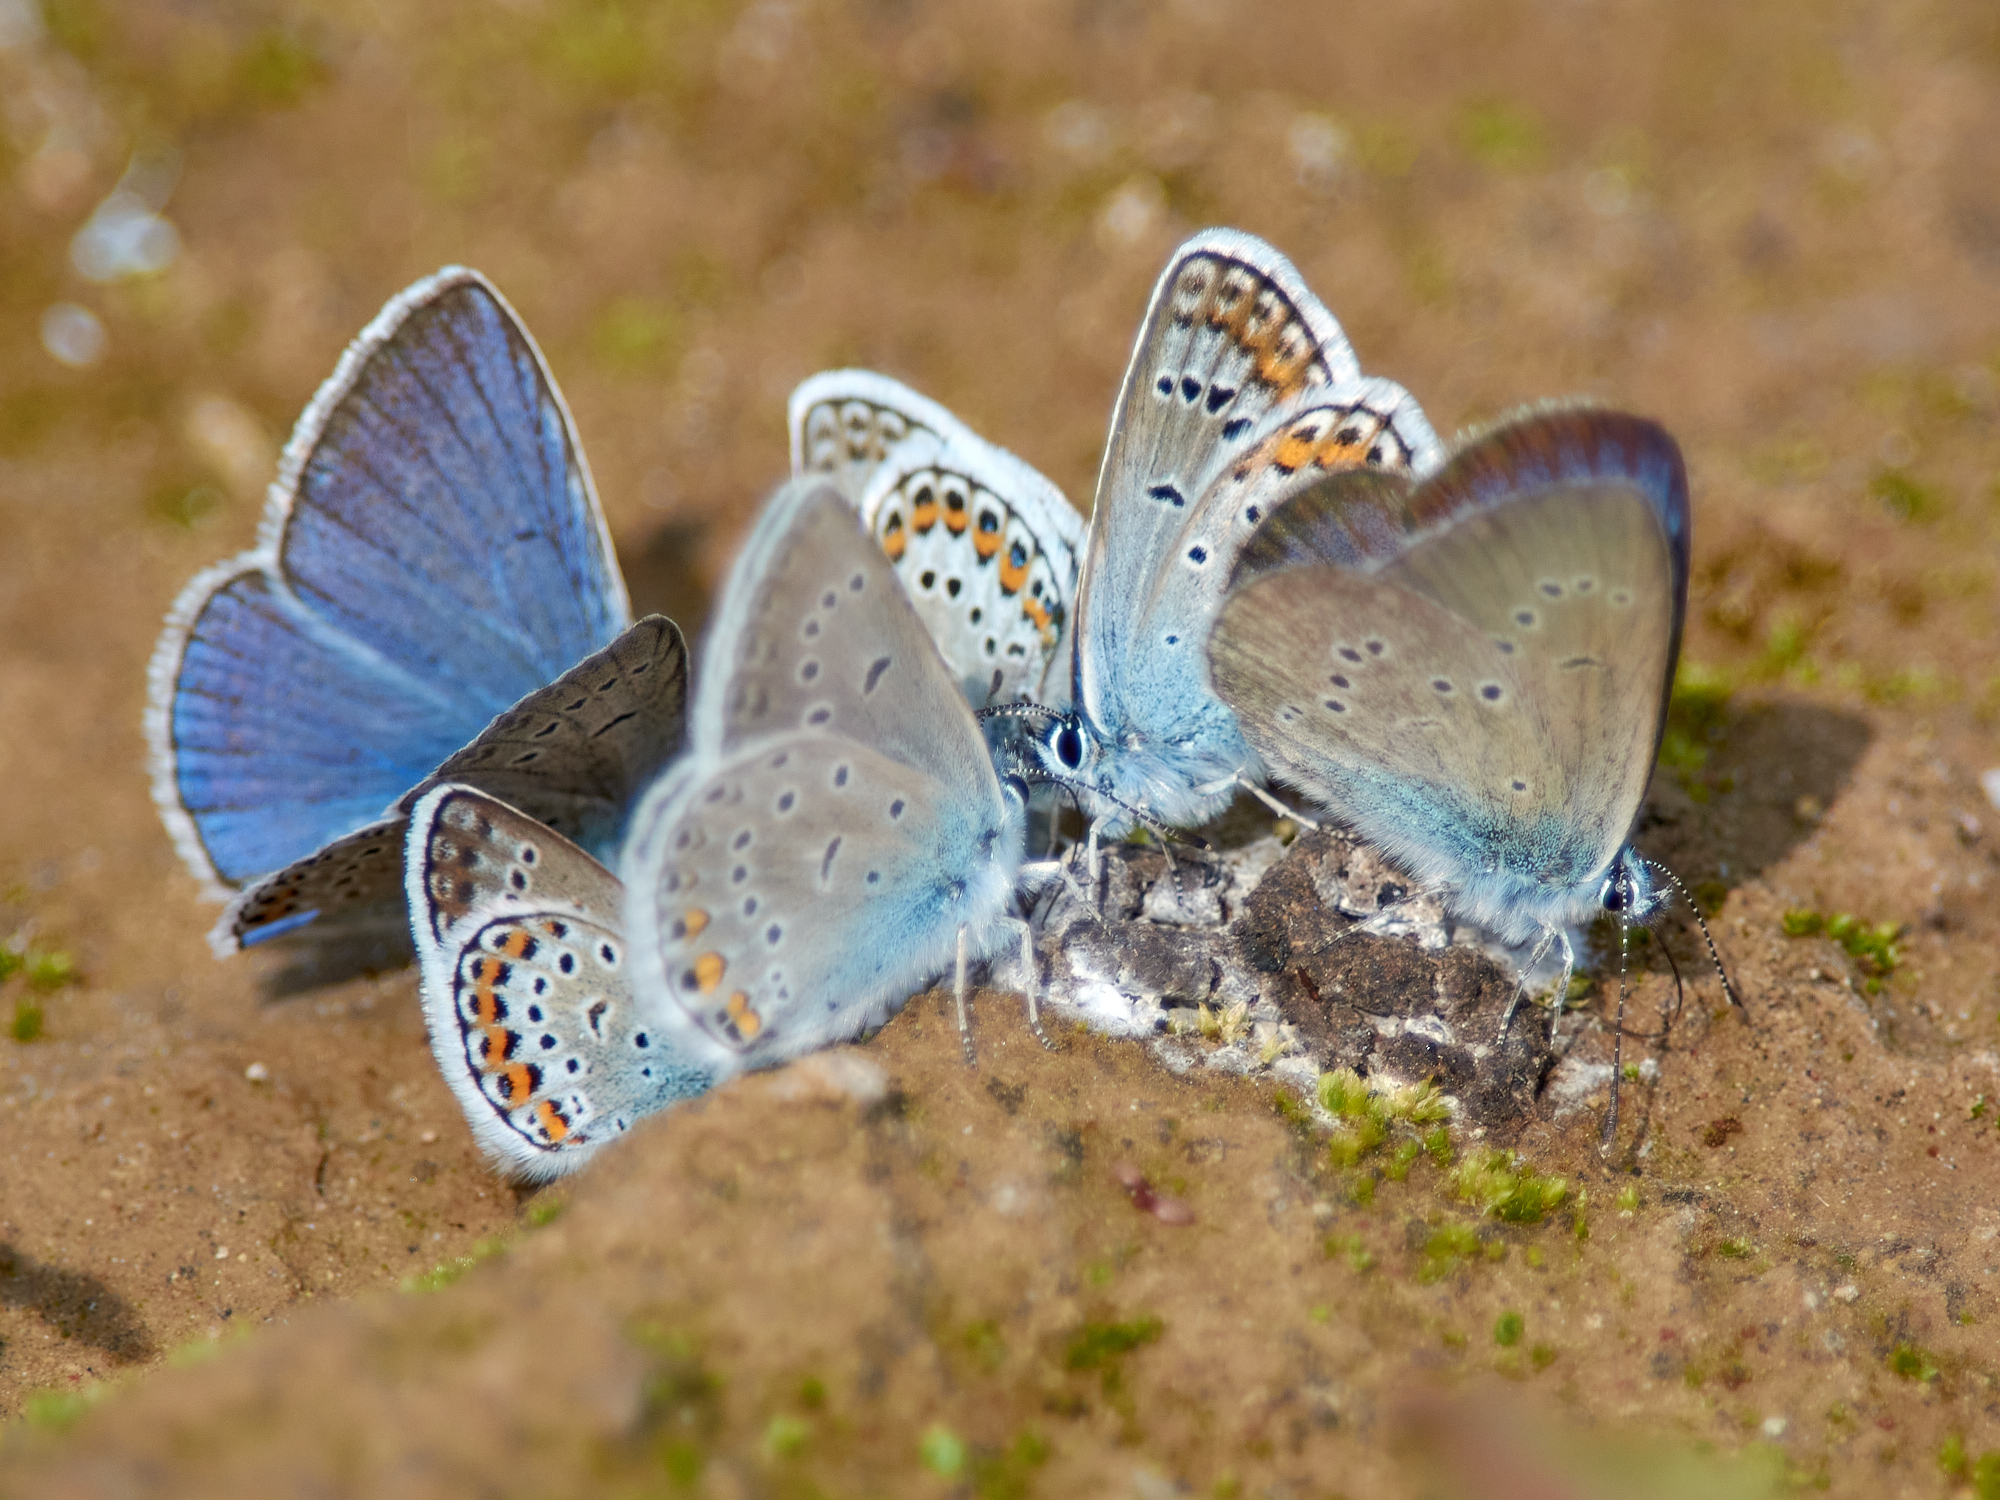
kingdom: Animalia
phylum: Arthropoda
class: Insecta
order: Lepidoptera
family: Lycaenidae
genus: Plebejus
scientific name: Plebejus amanda
